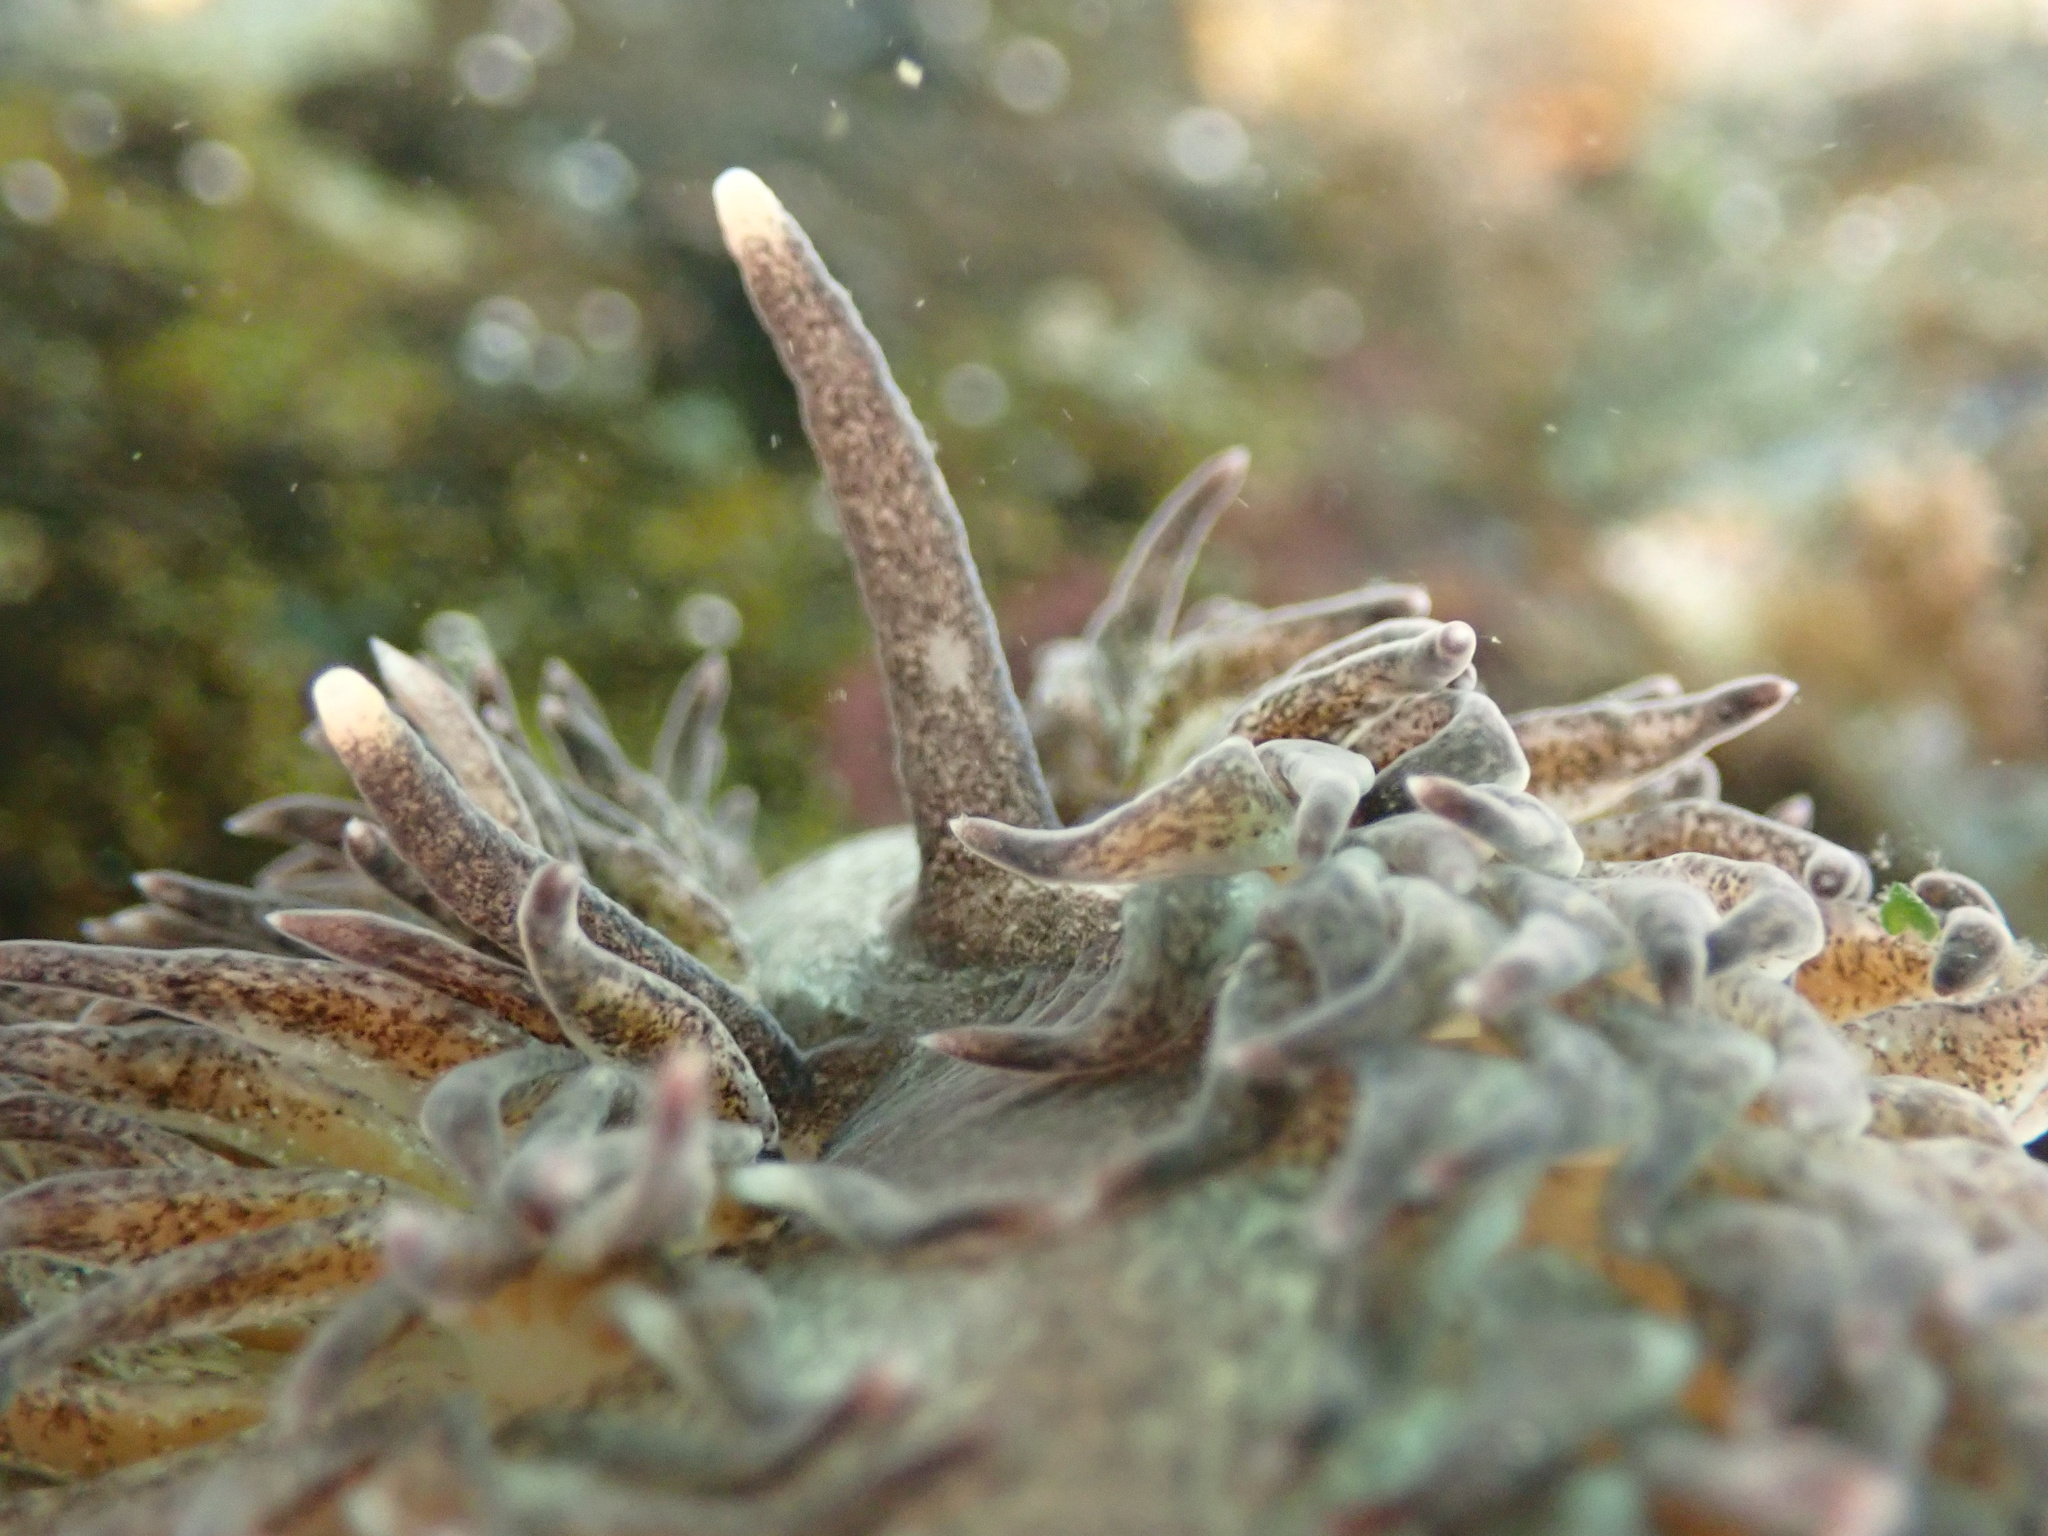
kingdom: Animalia
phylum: Mollusca
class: Gastropoda
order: Nudibranchia
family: Aeolidiidae
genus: Aeolidia
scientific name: Aeolidia papillosa
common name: Common grey sea slug
